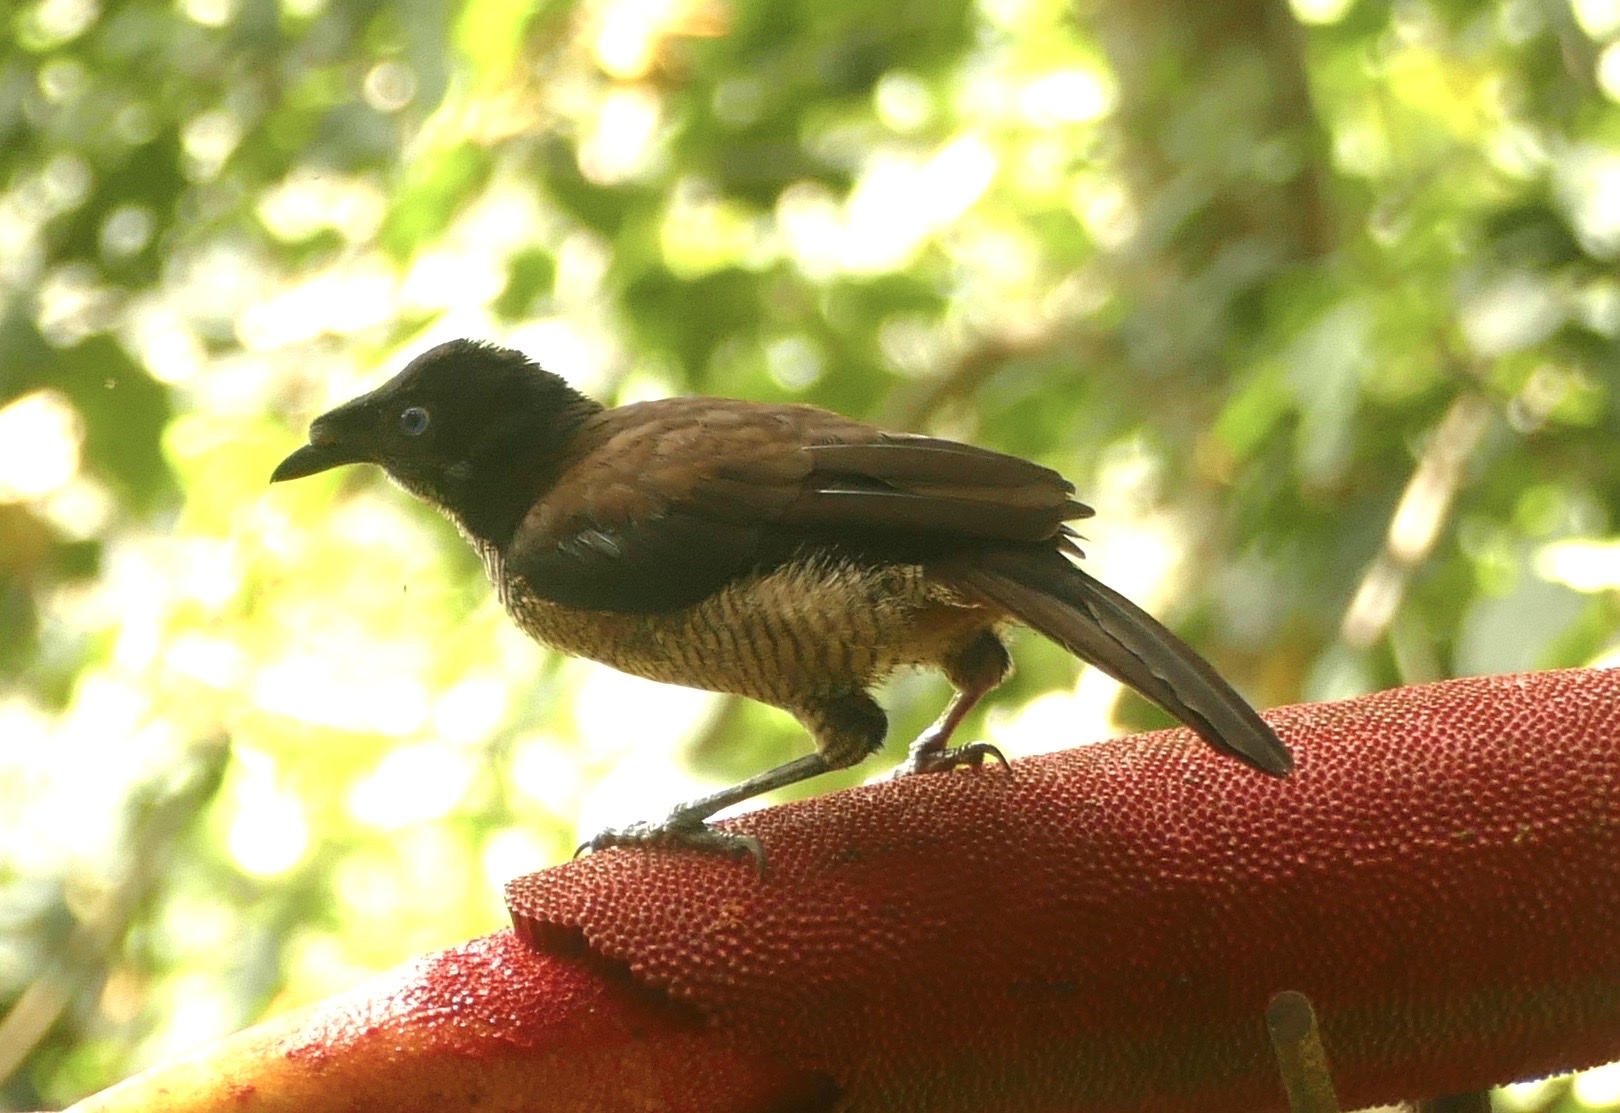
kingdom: Animalia
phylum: Chordata
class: Aves
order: Passeriformes
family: Paradisaeidae
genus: Parotia
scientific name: Parotia sefilata
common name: Western parotia
